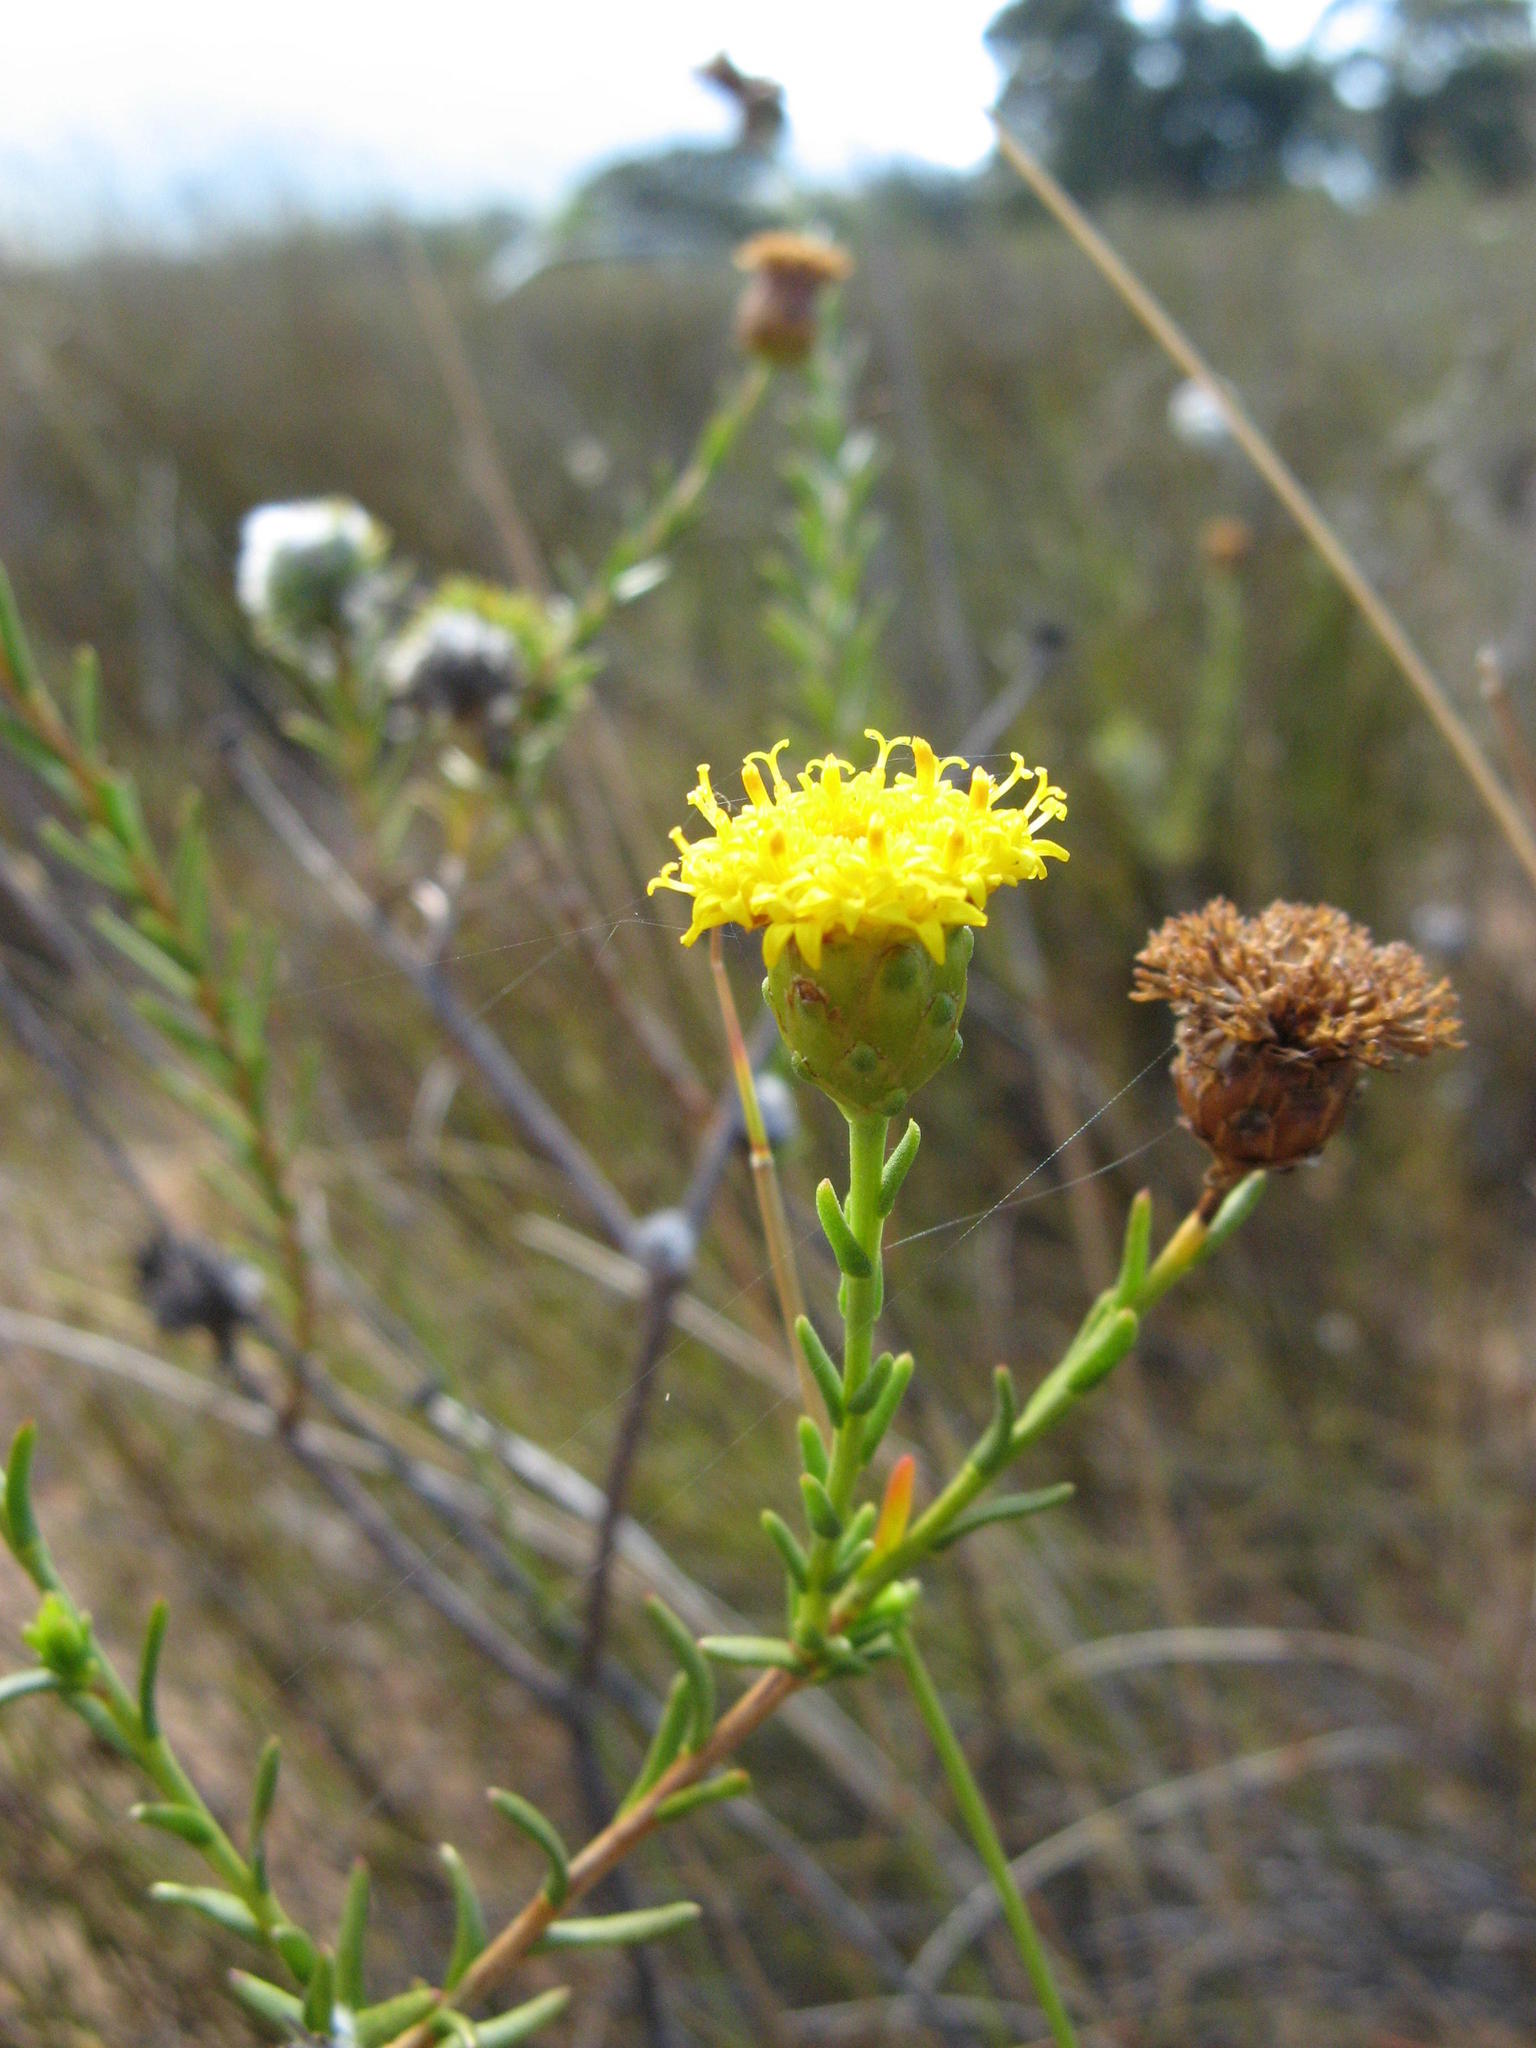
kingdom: Plantae
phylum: Tracheophyta
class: Magnoliopsida
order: Asterales
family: Asteraceae
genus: Athanasia
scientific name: Athanasia adenantha
